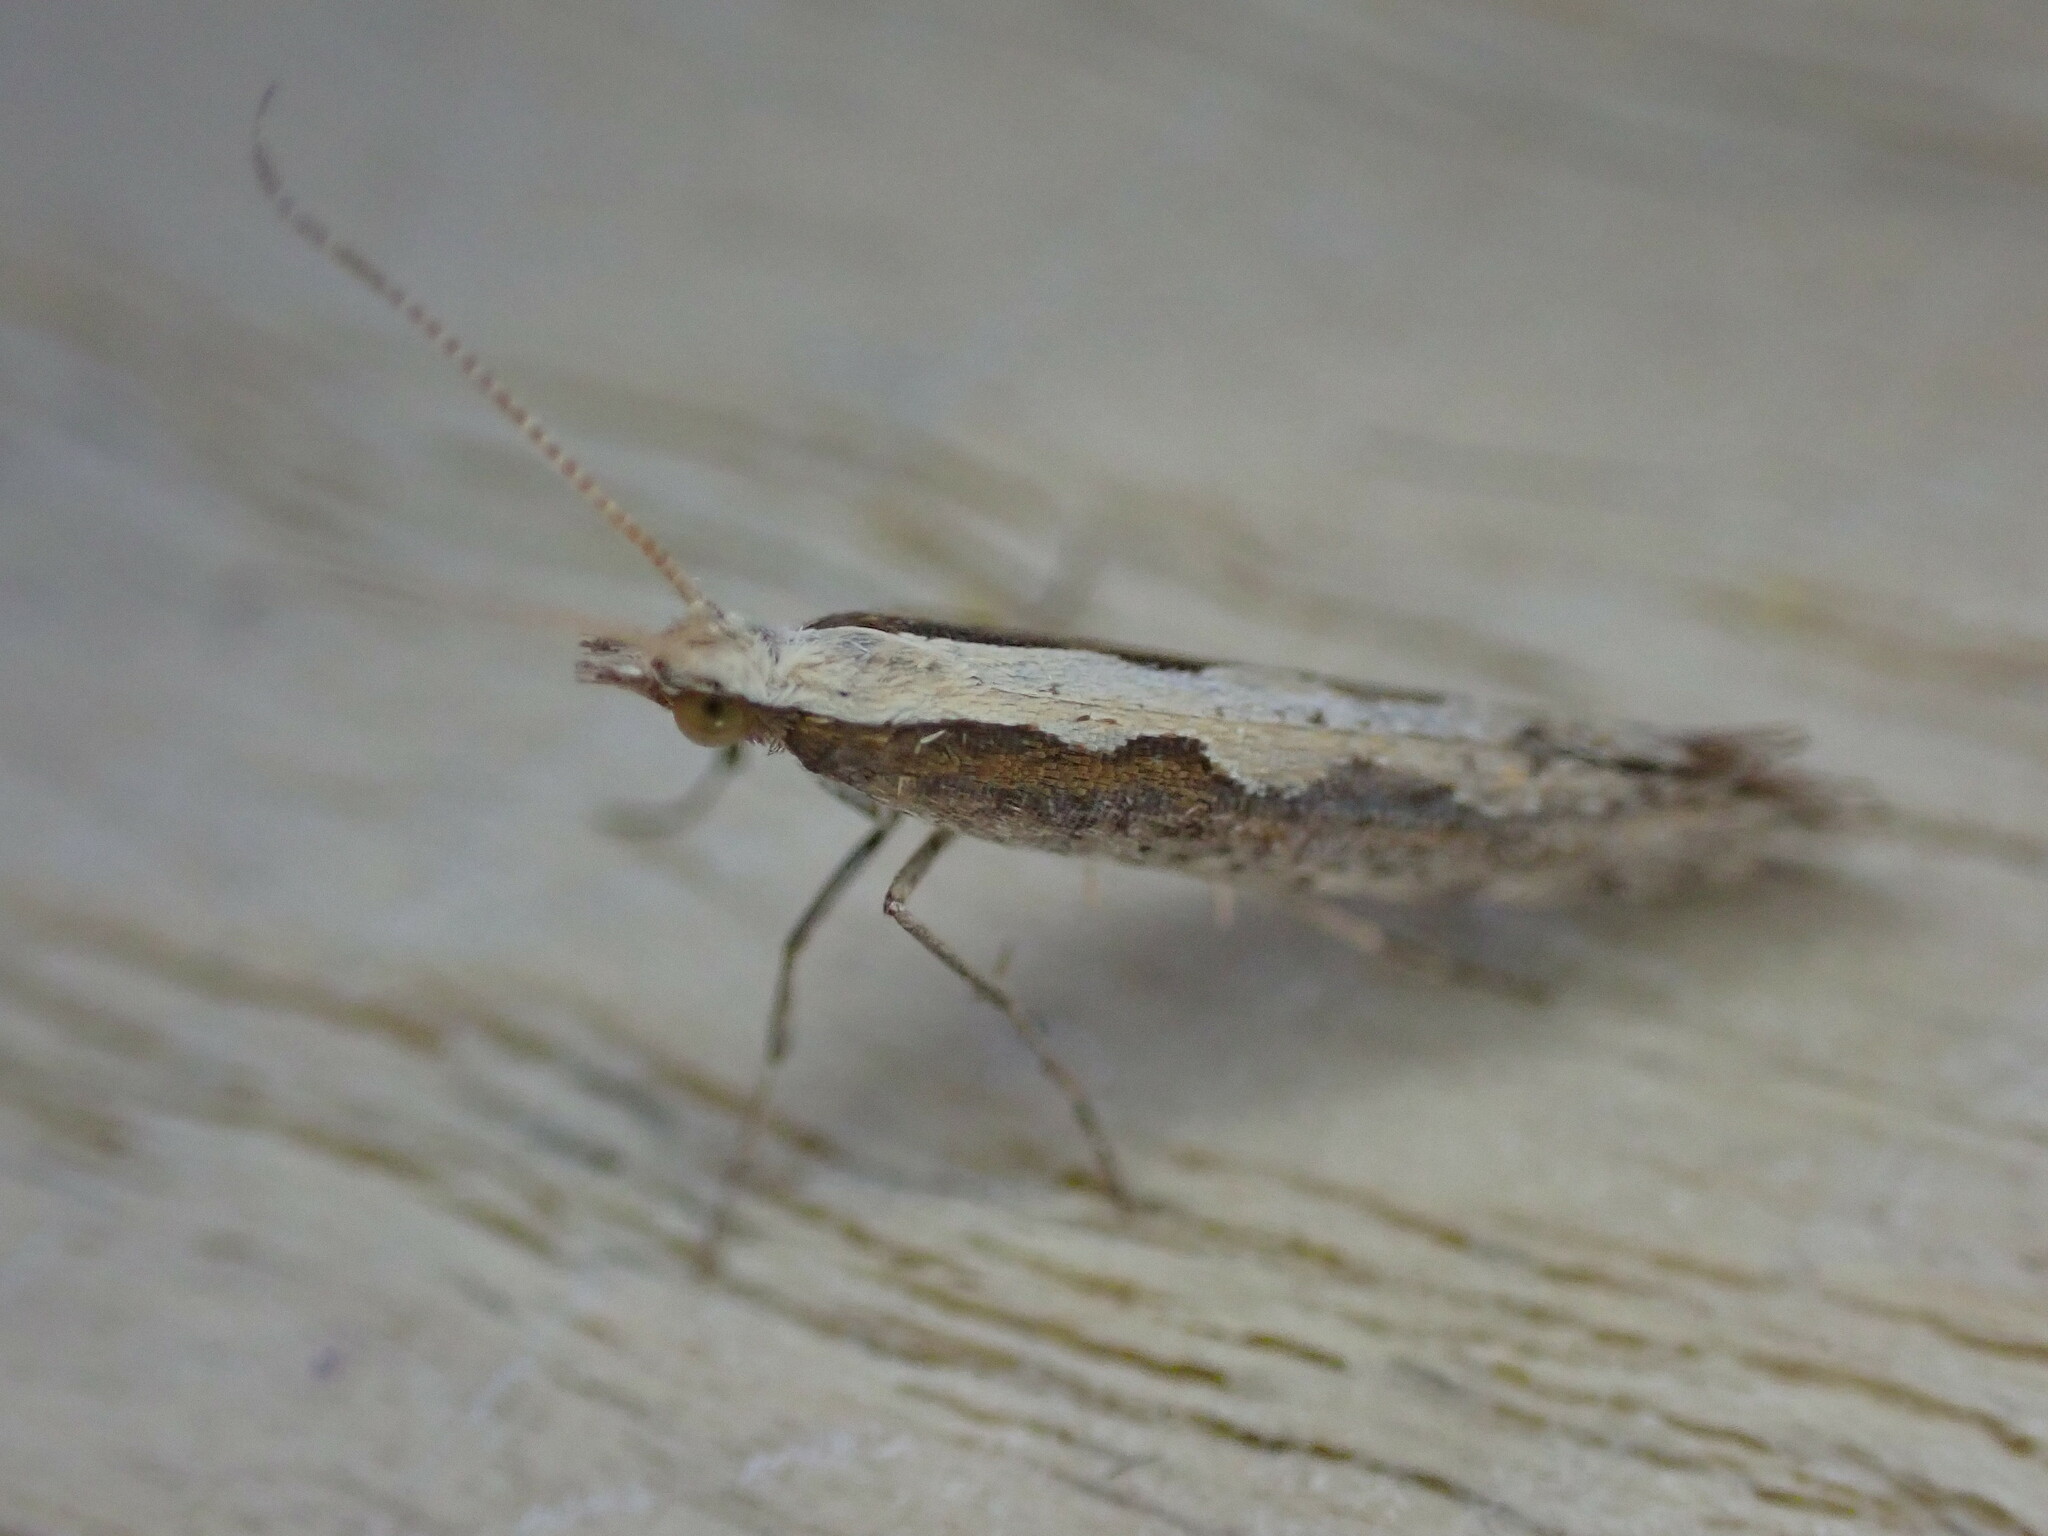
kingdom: Animalia
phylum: Arthropoda
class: Insecta
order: Lepidoptera
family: Plutellidae
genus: Plutella
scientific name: Plutella xylostella
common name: Diamond-back moth
